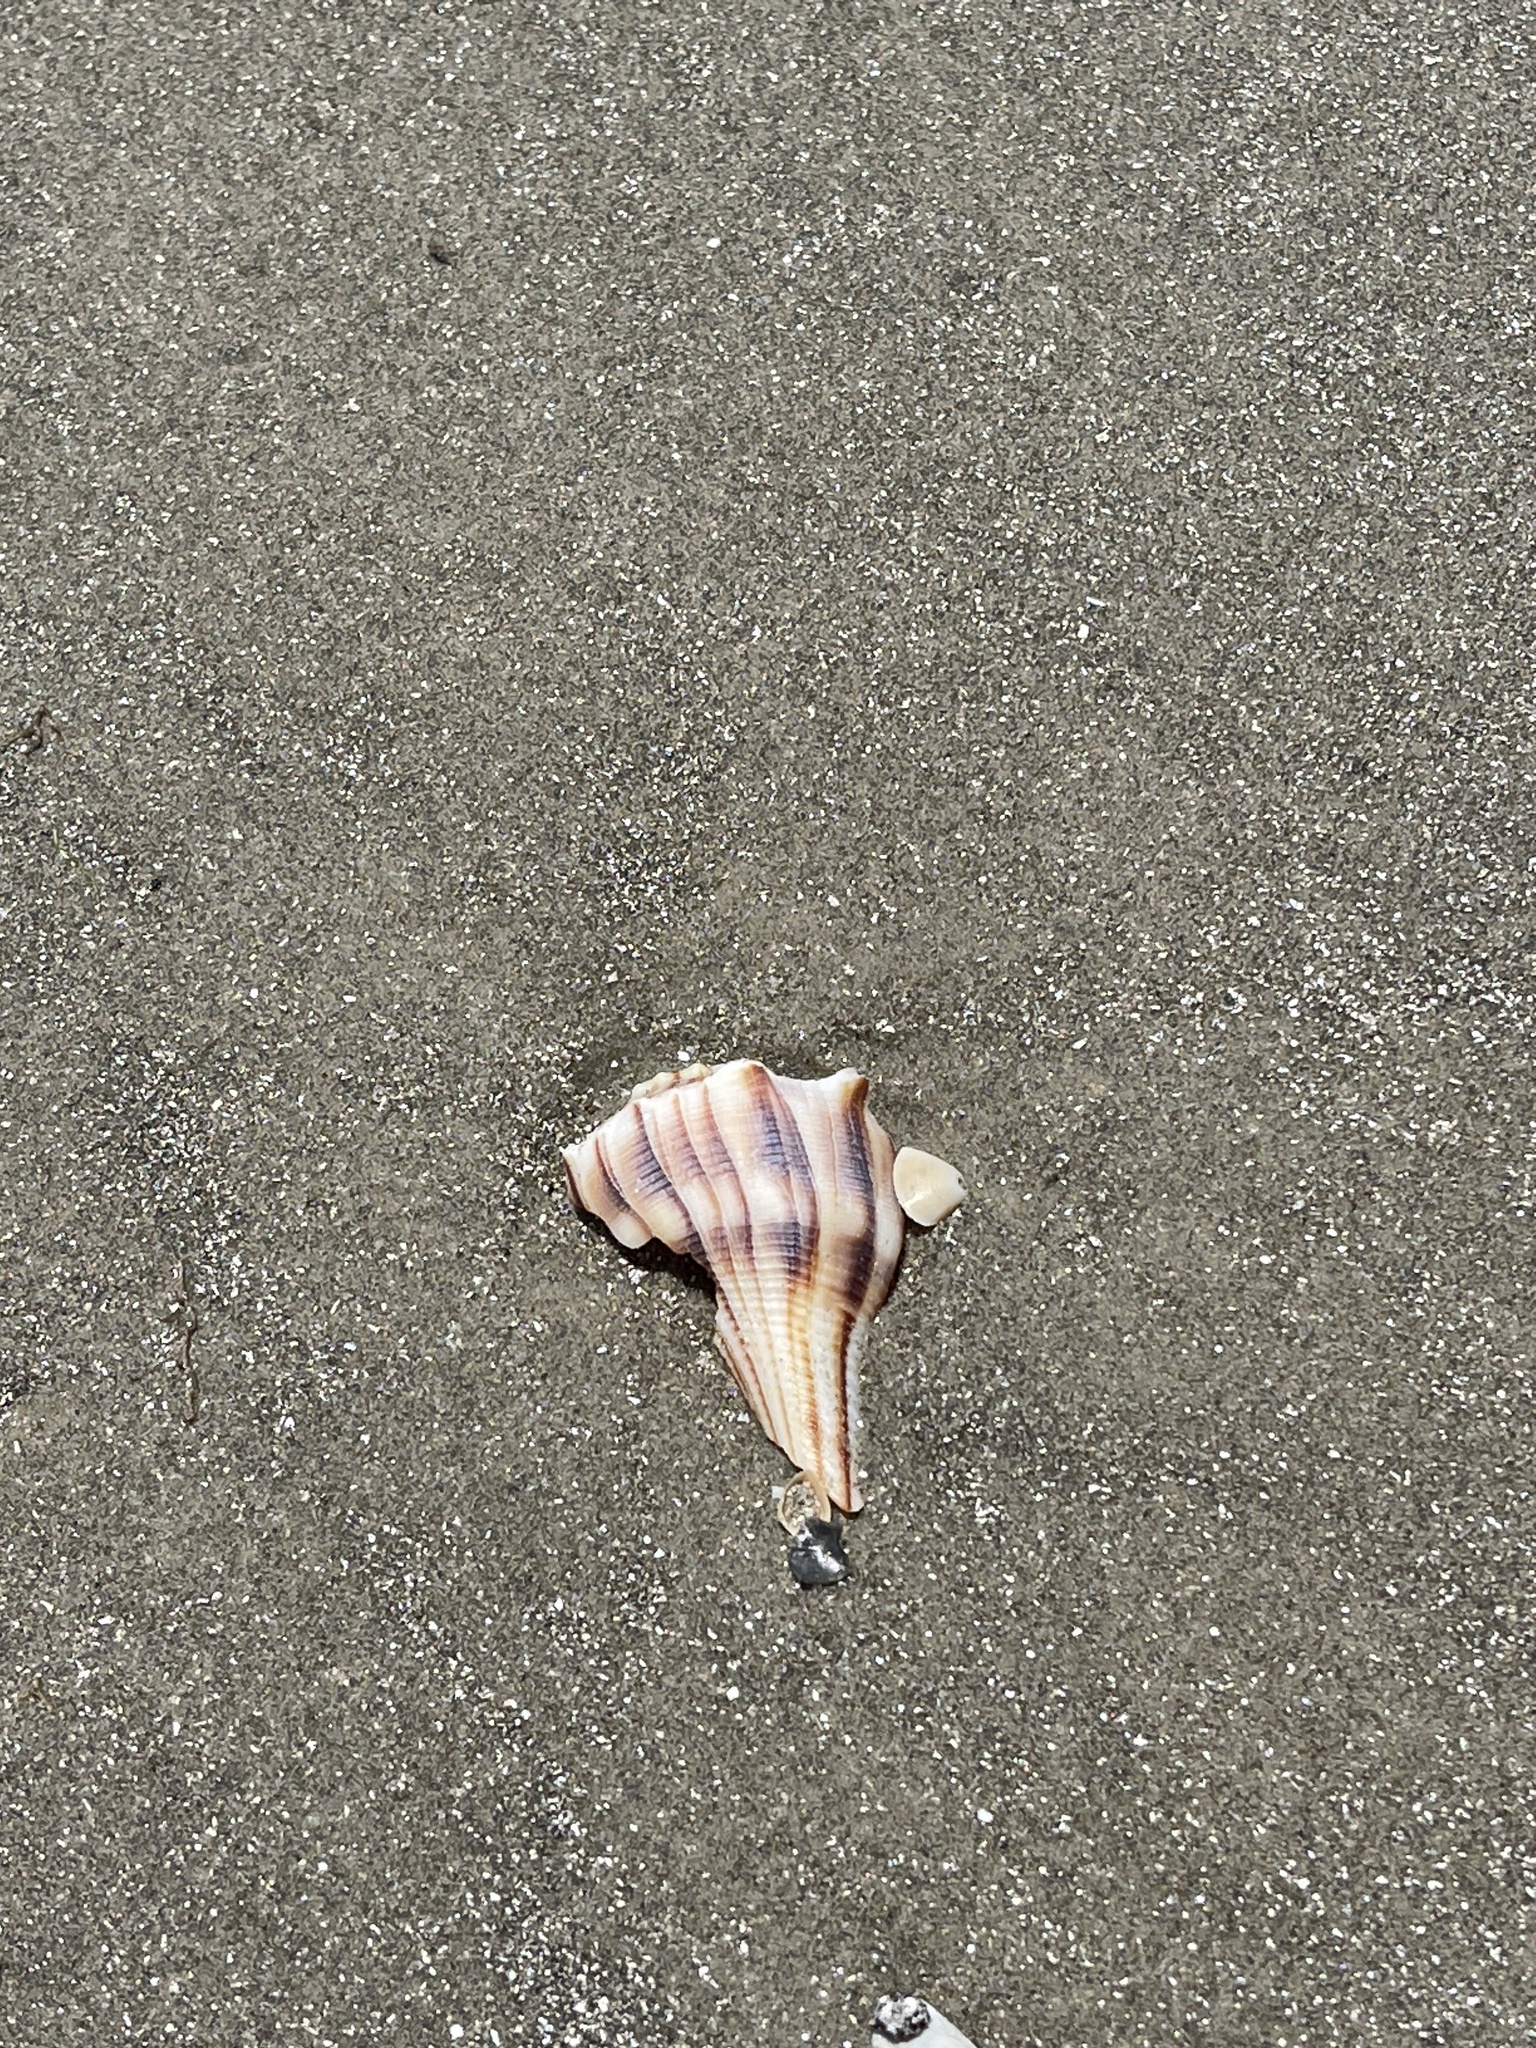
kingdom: Animalia
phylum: Mollusca
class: Gastropoda
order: Neogastropoda
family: Busyconidae
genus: Sinistrofulgur
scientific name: Sinistrofulgur pulleyi
